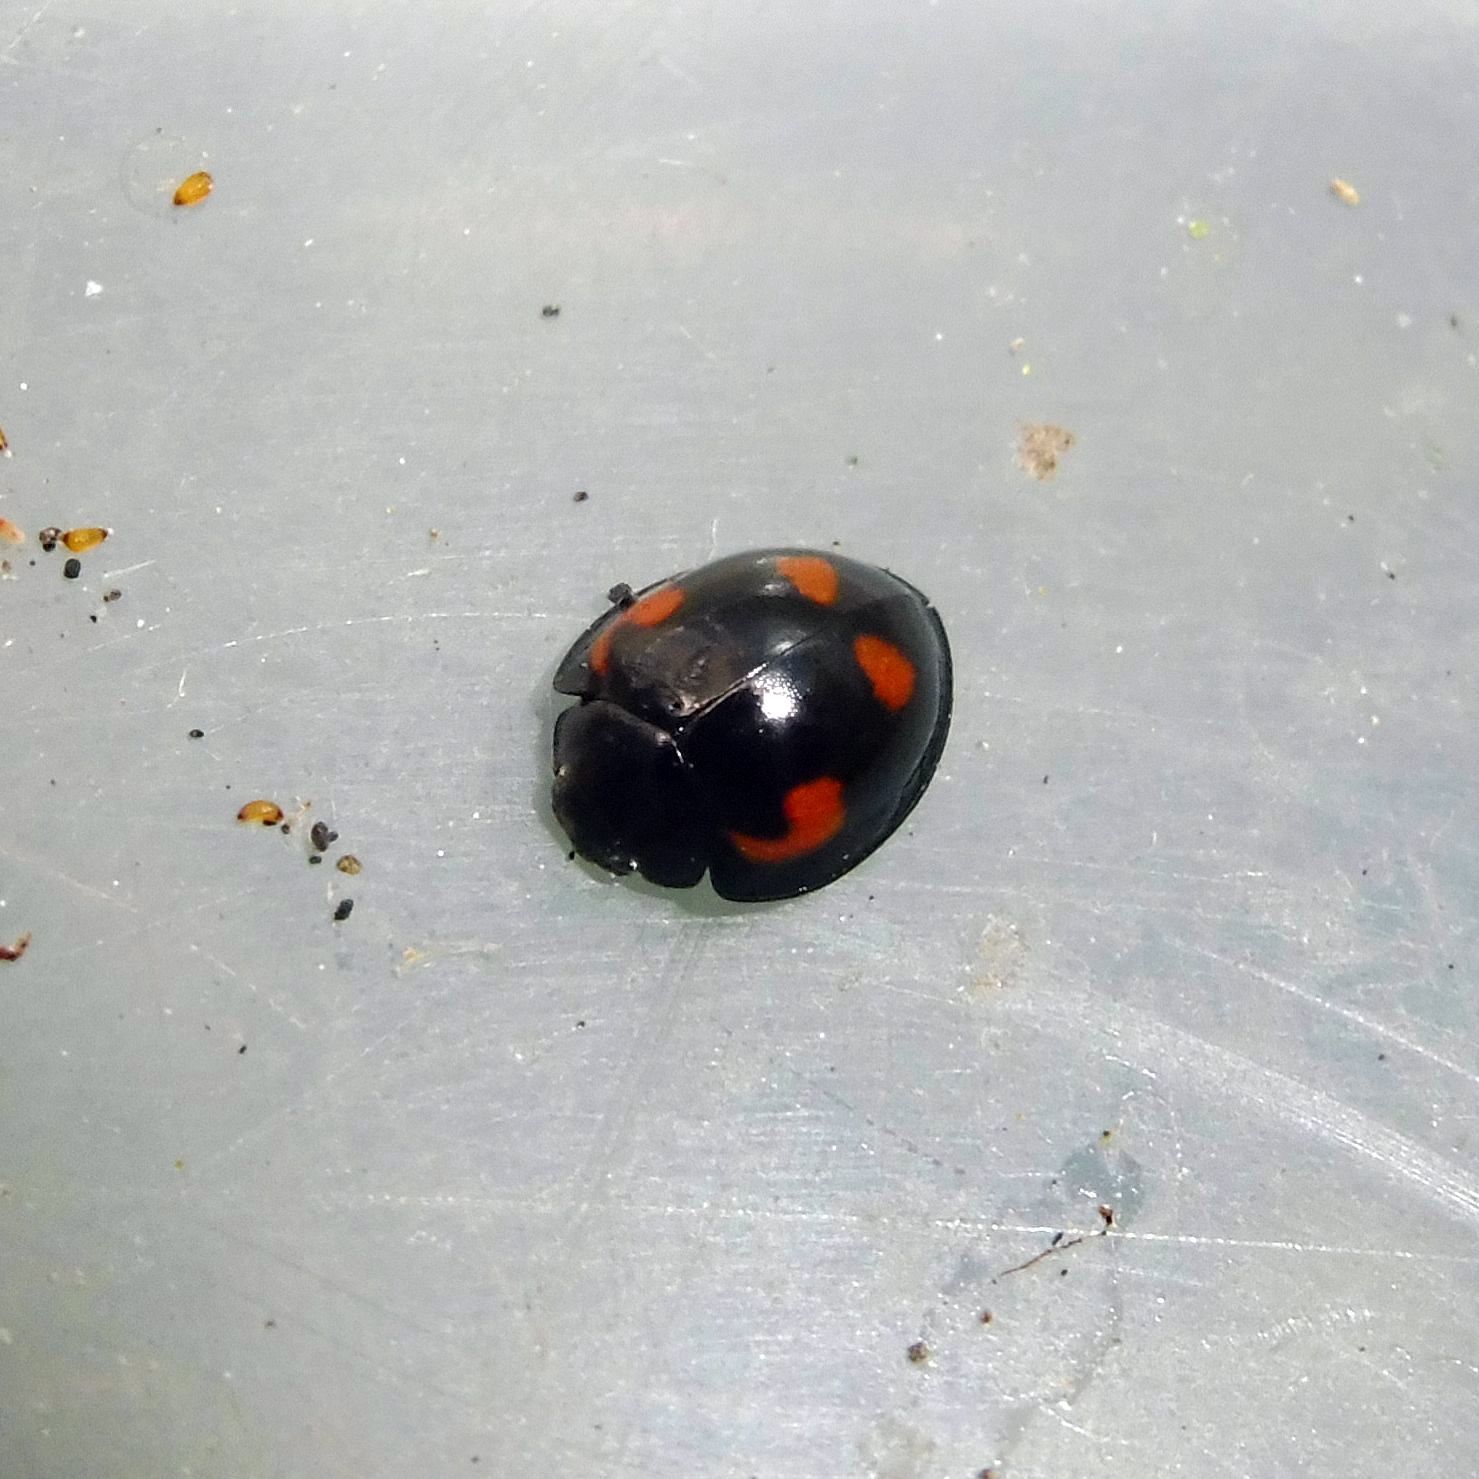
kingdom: Animalia
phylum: Arthropoda
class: Insecta
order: Coleoptera
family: Coccinellidae
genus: Brumus
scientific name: Brumus quadripustulatus
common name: Ladybird beetle
